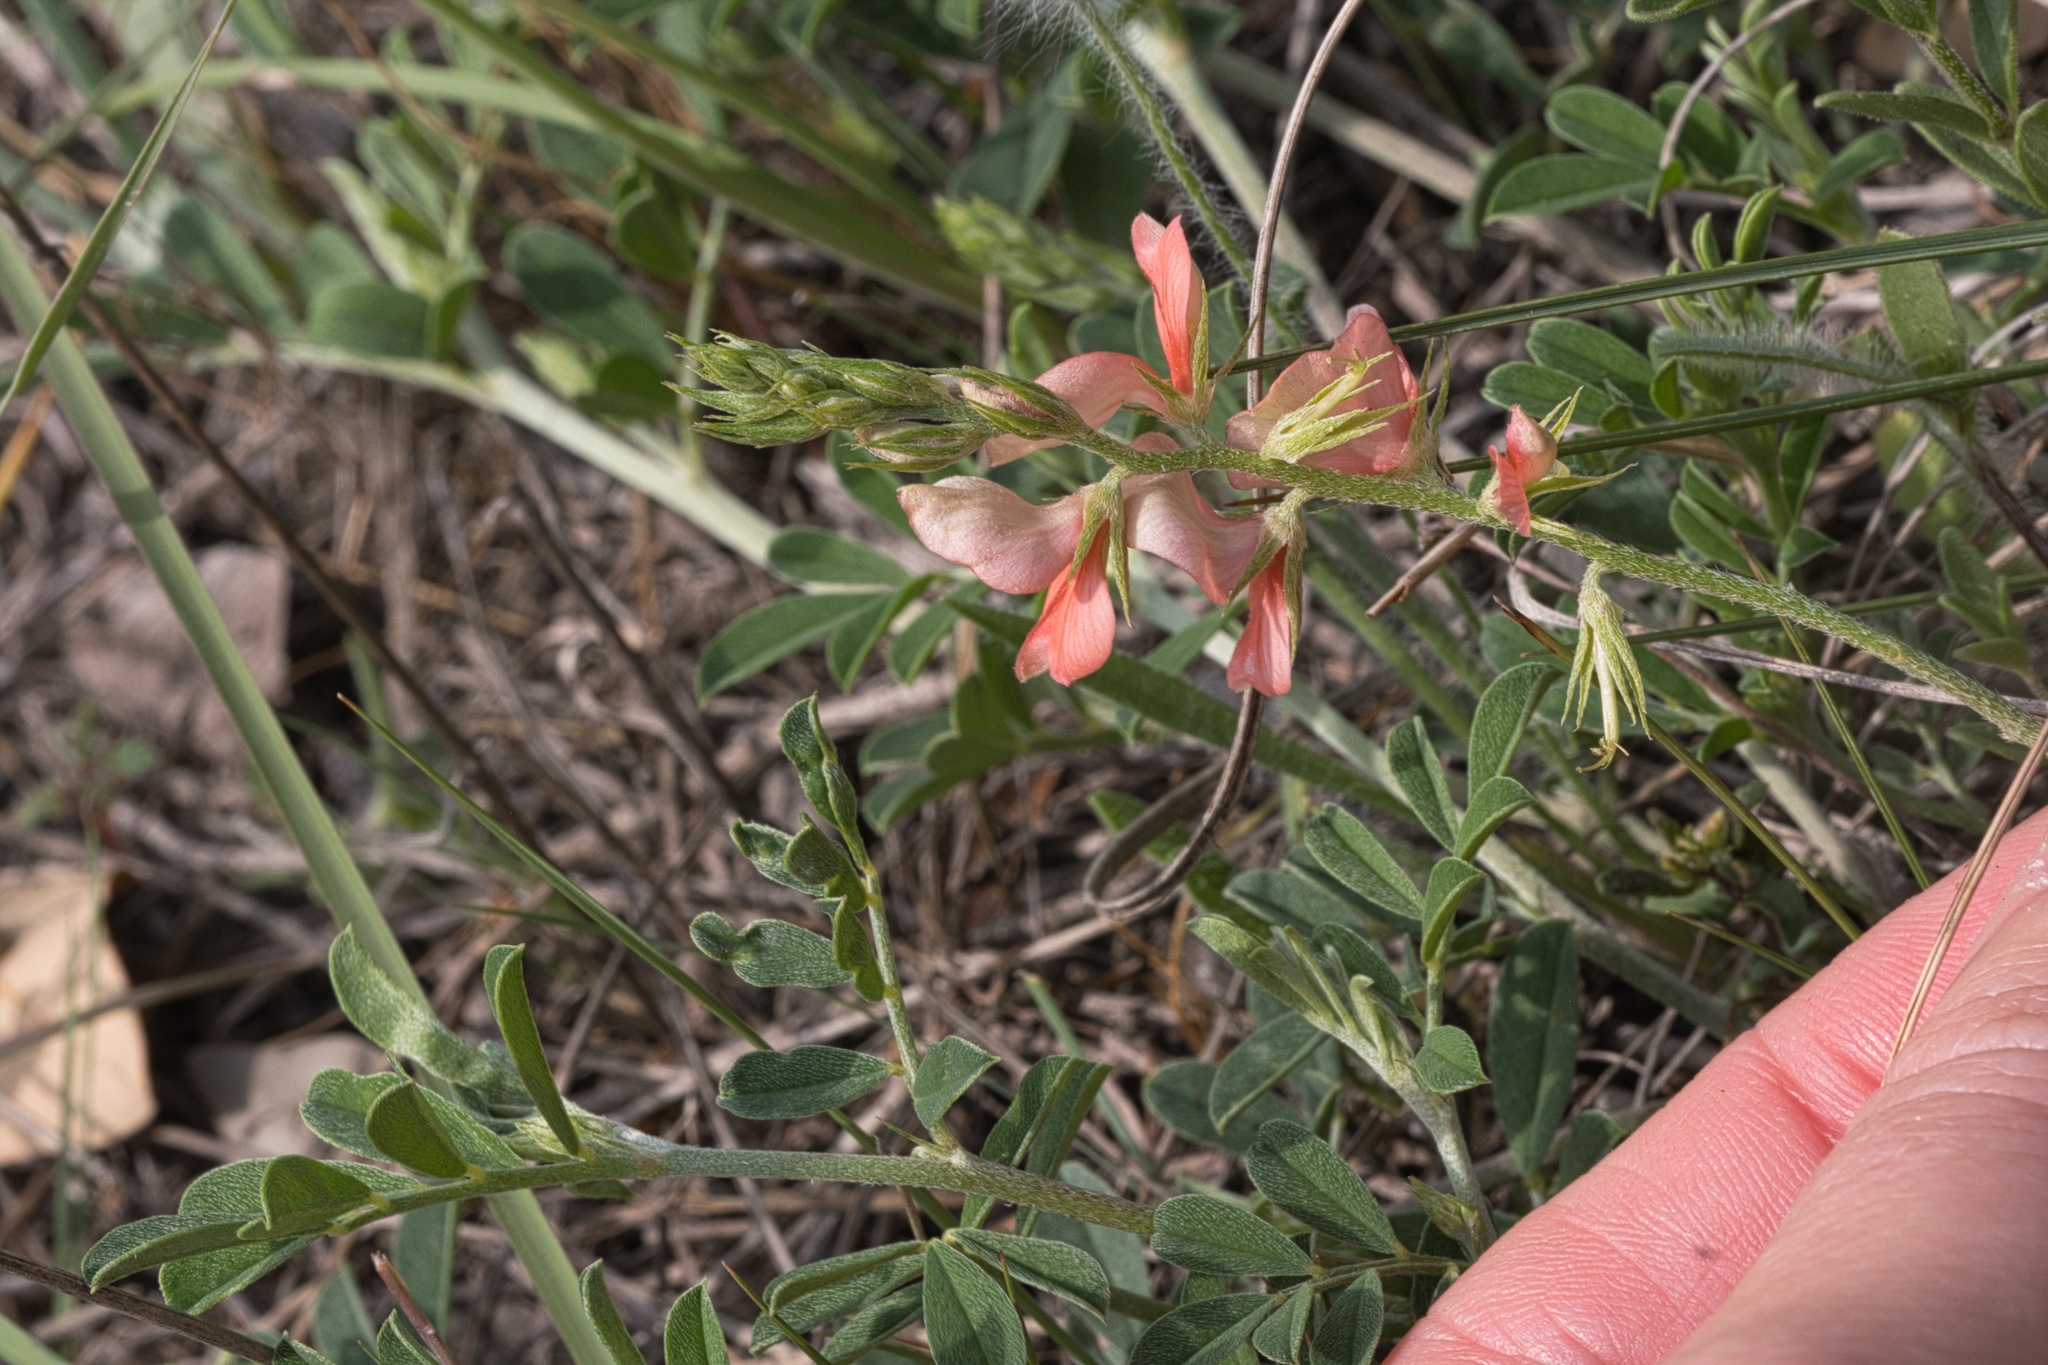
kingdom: Plantae
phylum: Tracheophyta
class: Magnoliopsida
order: Fabales
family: Fabaceae
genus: Indigofera
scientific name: Indigofera miniata
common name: Coast indigo
